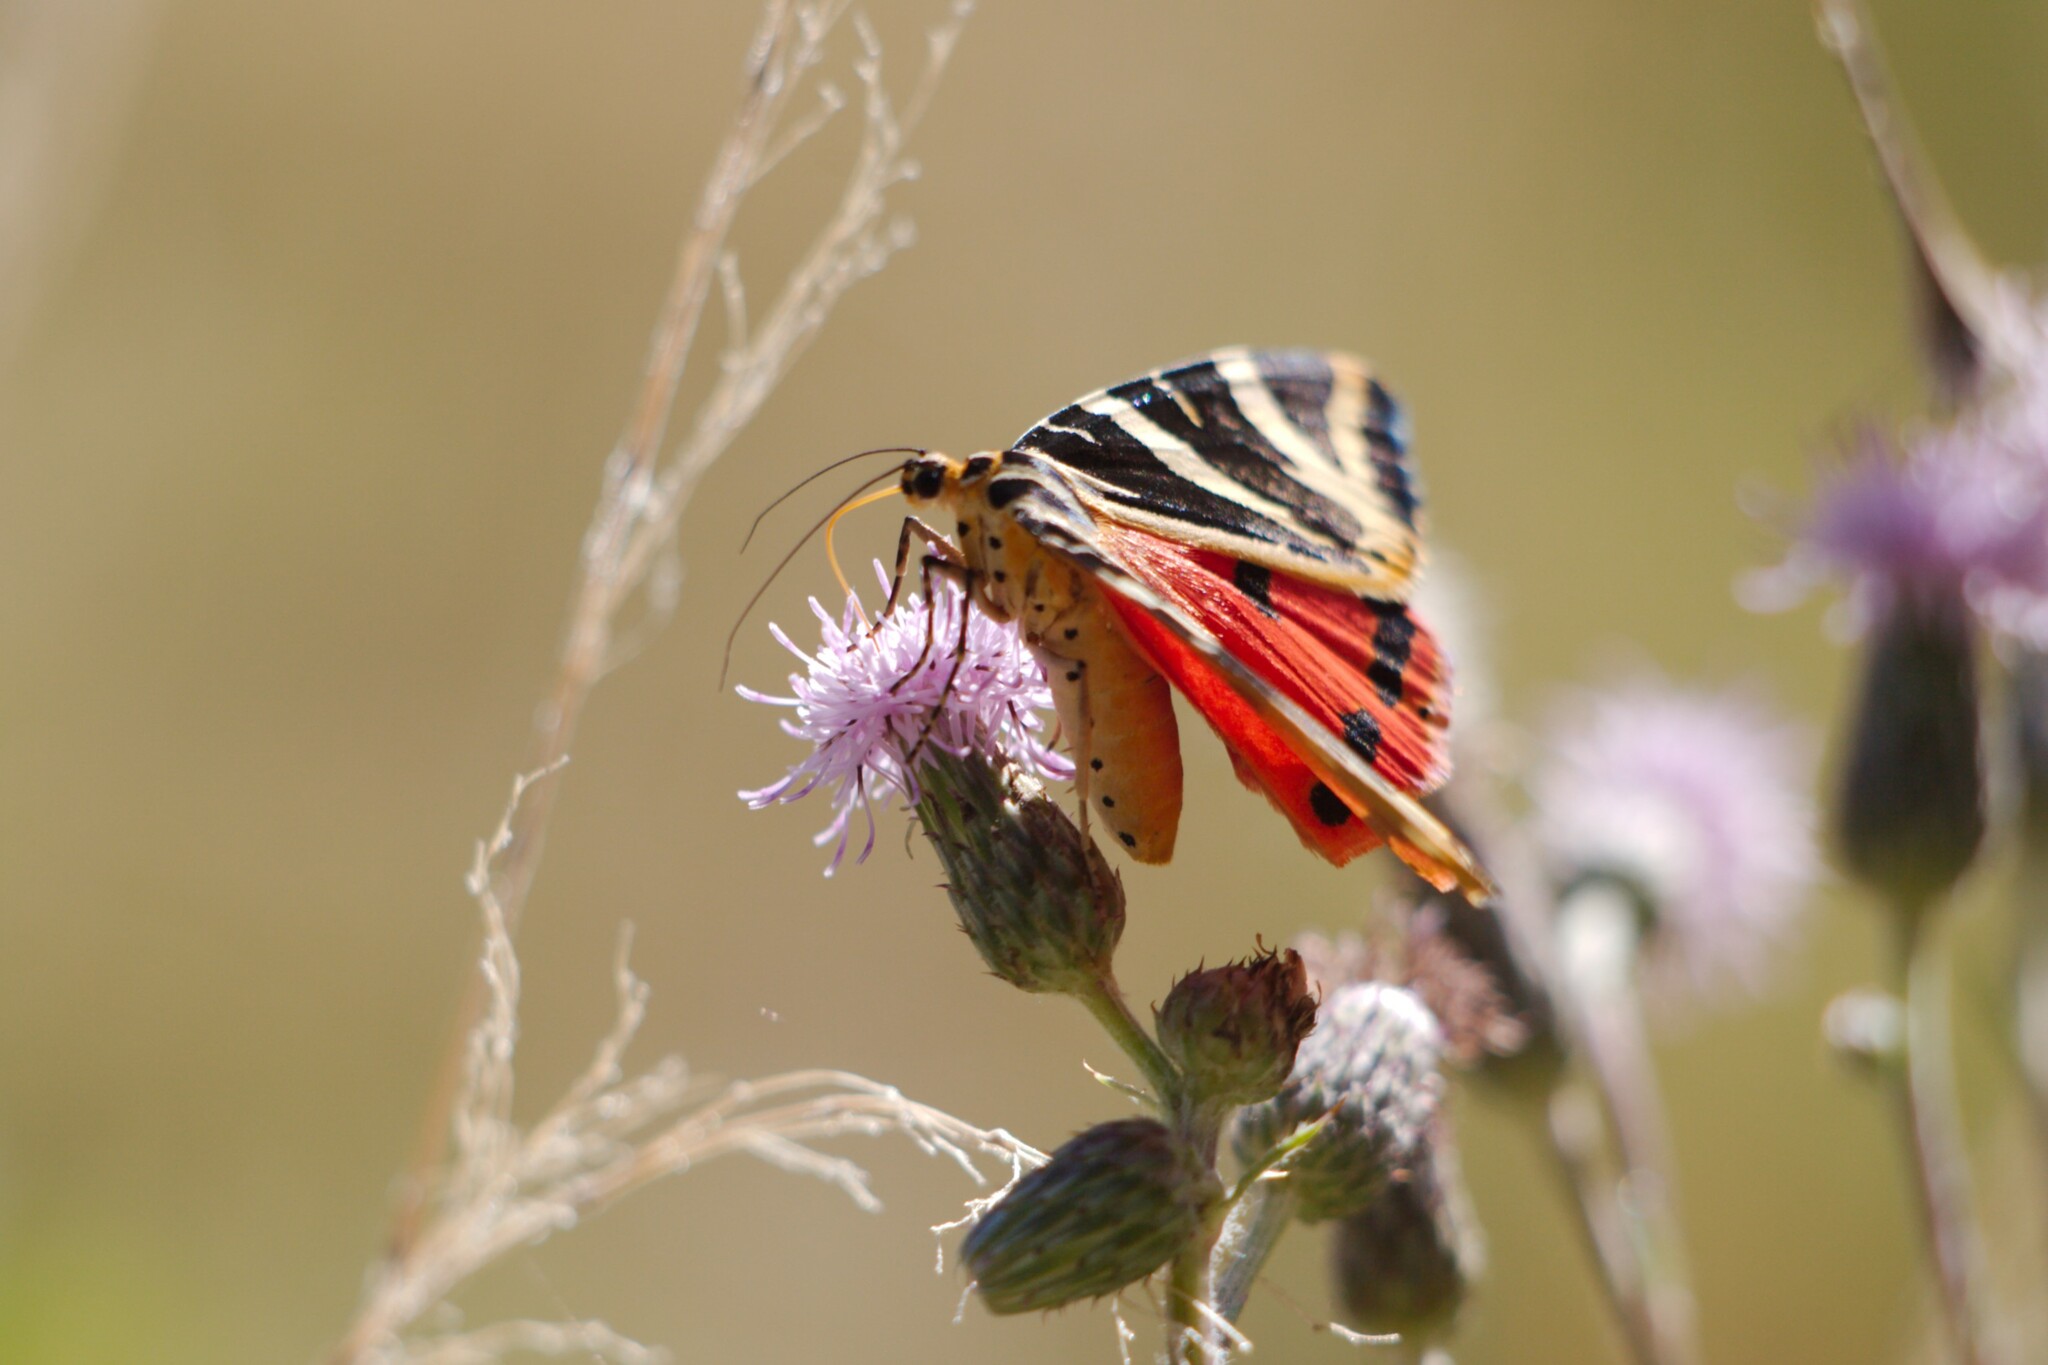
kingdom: Animalia
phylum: Arthropoda
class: Insecta
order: Lepidoptera
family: Erebidae
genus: Euplagia
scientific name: Euplagia quadripunctaria
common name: Jersey tiger
